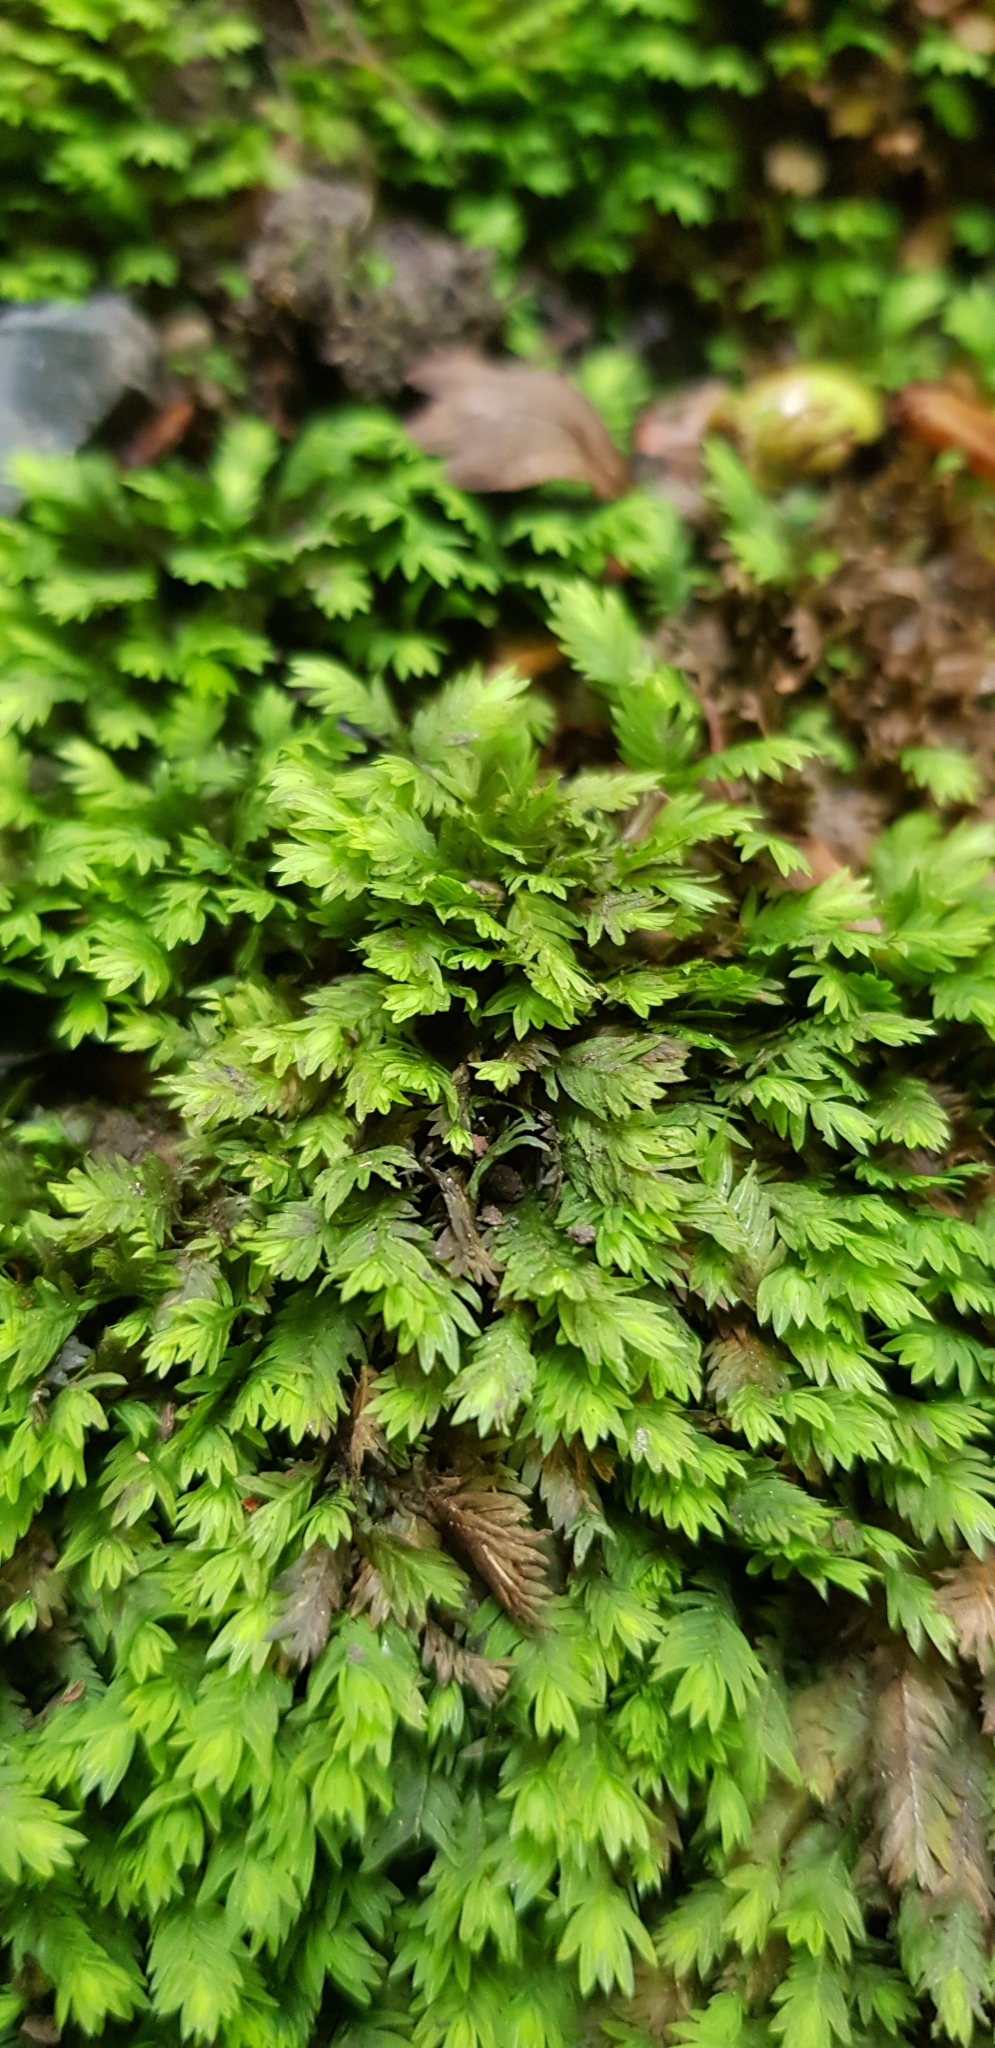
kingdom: Plantae
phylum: Bryophyta
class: Bryopsida
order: Dicranales
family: Fissidentaceae
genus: Fissidens
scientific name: Fissidens taxifolius
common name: Yew-leaved pocket moss
